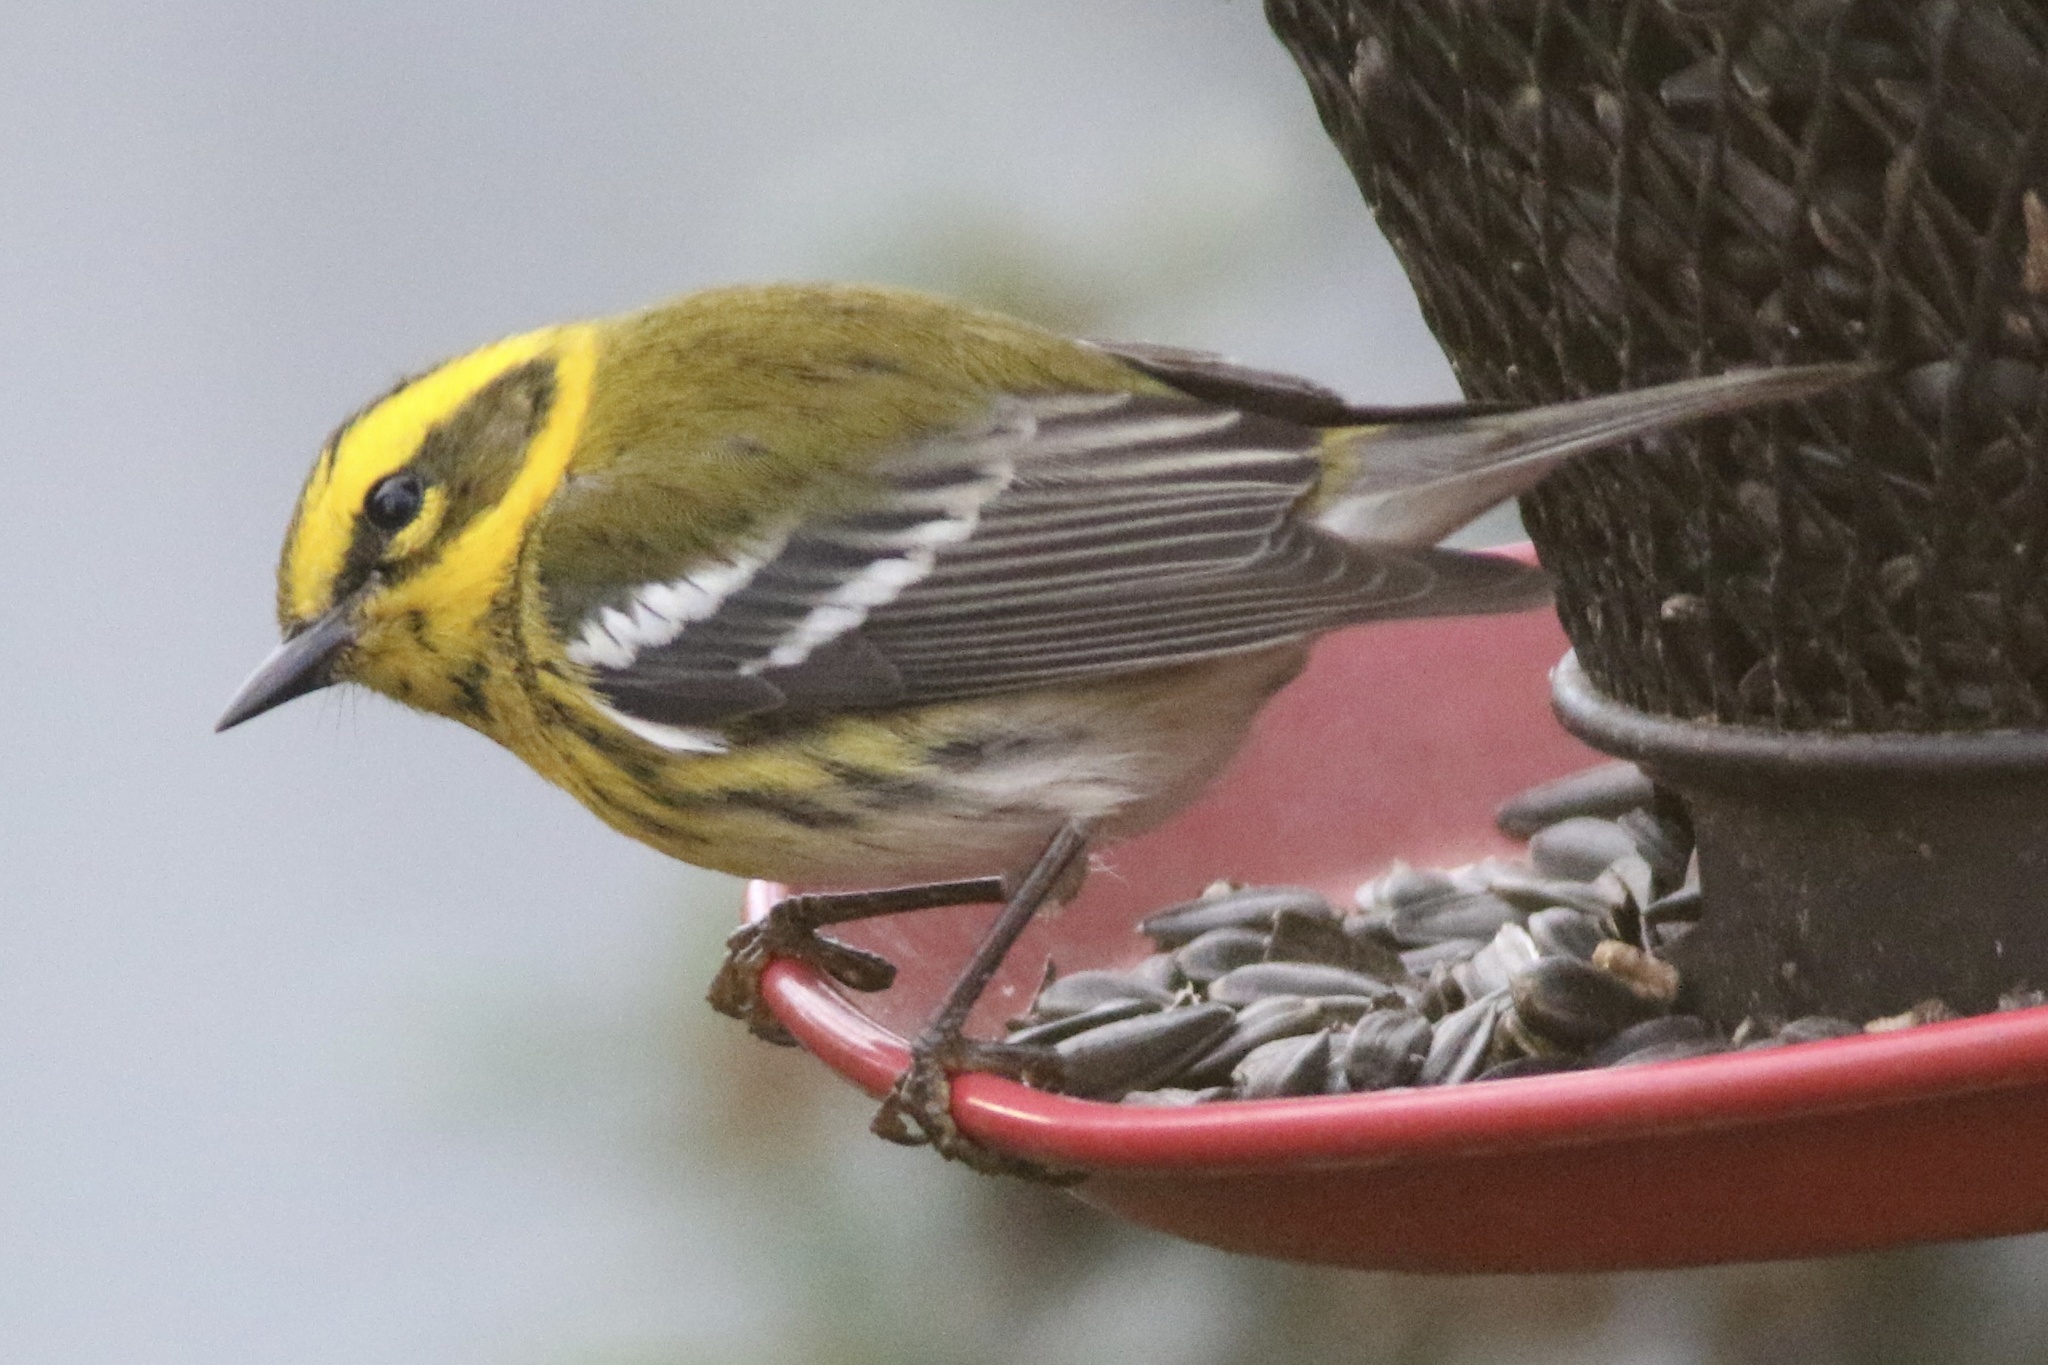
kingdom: Animalia
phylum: Chordata
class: Aves
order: Passeriformes
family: Parulidae
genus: Setophaga
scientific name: Setophaga townsendi
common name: Townsend's warbler
